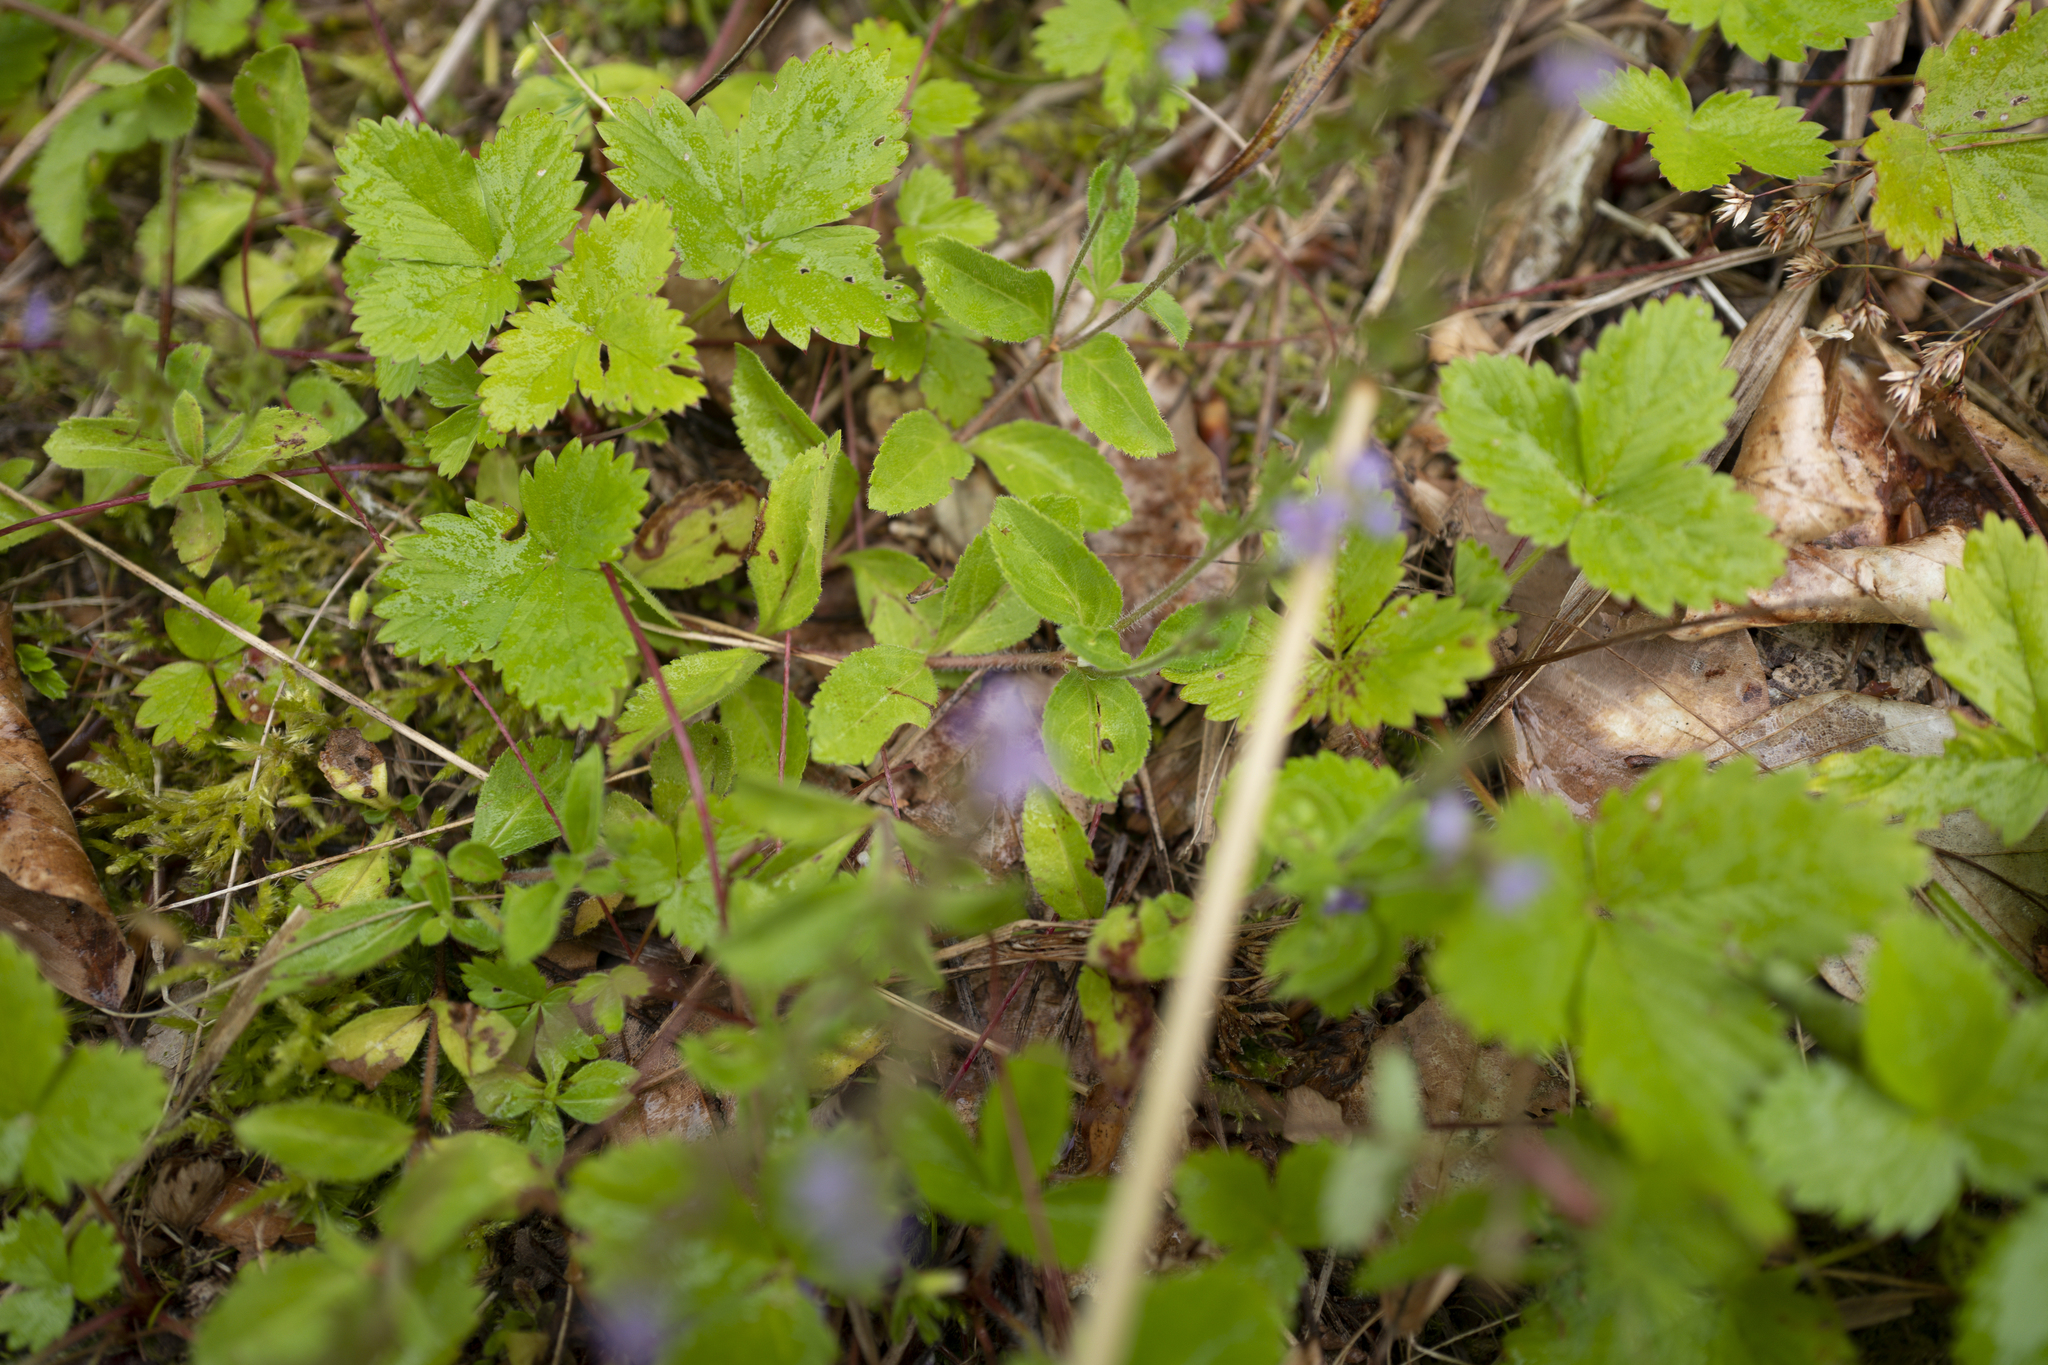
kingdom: Plantae
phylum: Tracheophyta
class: Magnoliopsida
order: Lamiales
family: Plantaginaceae
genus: Veronica
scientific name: Veronica officinalis
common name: Common speedwell
